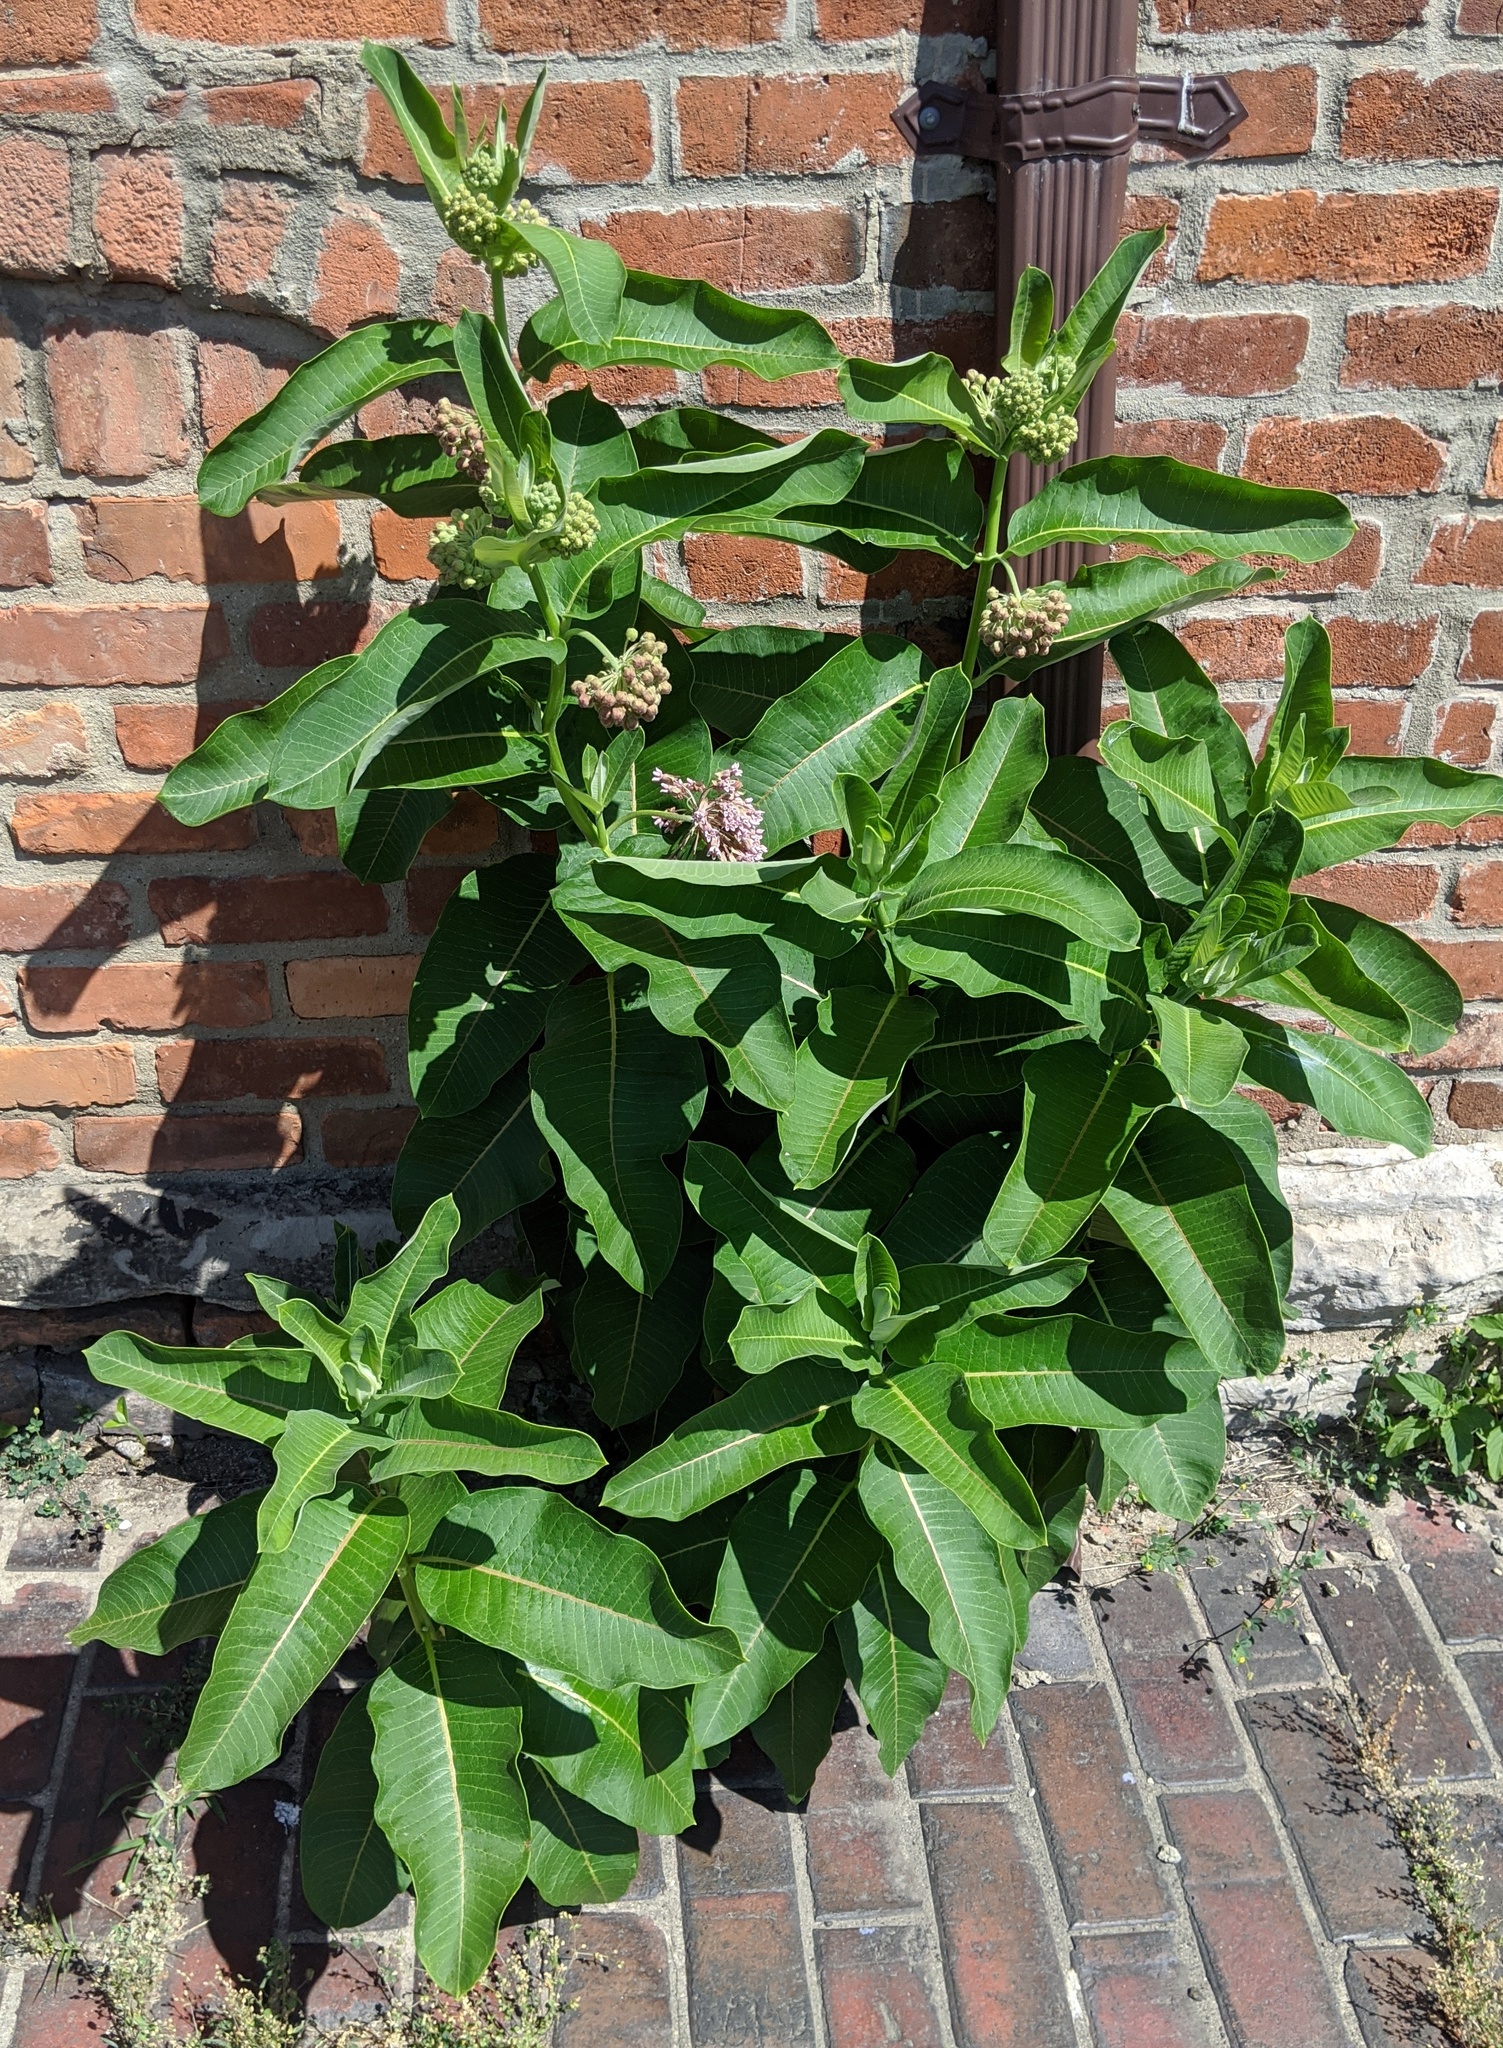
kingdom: Plantae
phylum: Tracheophyta
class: Magnoliopsida
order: Gentianales
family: Apocynaceae
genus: Asclepias
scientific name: Asclepias syriaca
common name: Common milkweed
